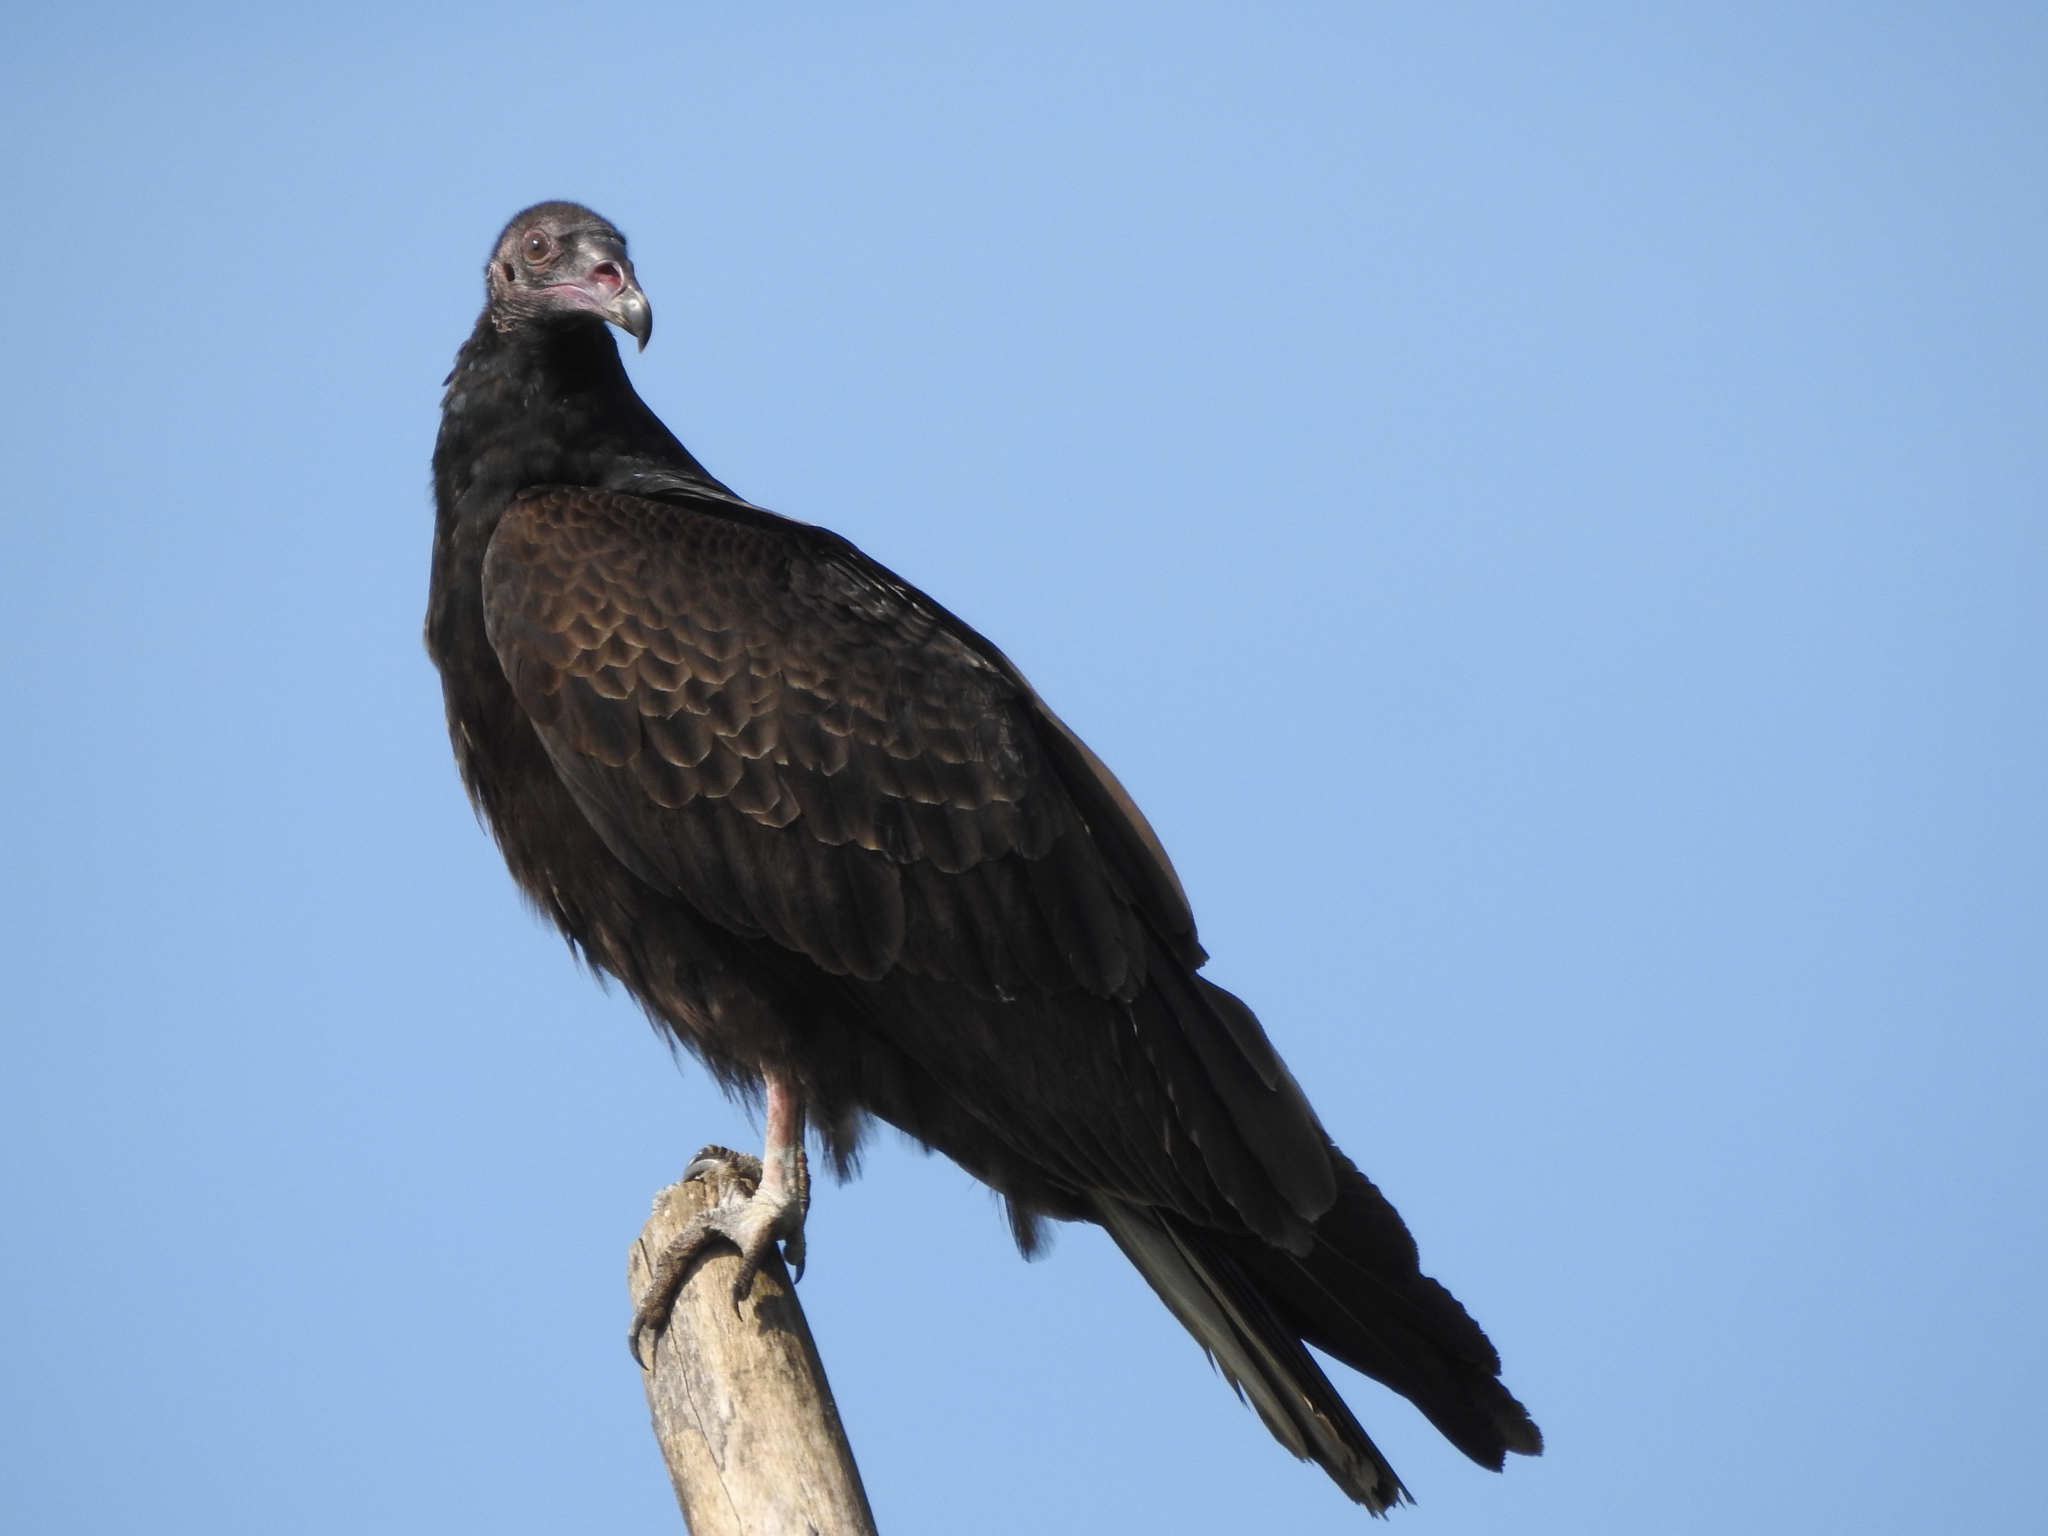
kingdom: Animalia
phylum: Chordata
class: Aves
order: Accipitriformes
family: Cathartidae
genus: Cathartes
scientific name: Cathartes aura
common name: Turkey vulture
